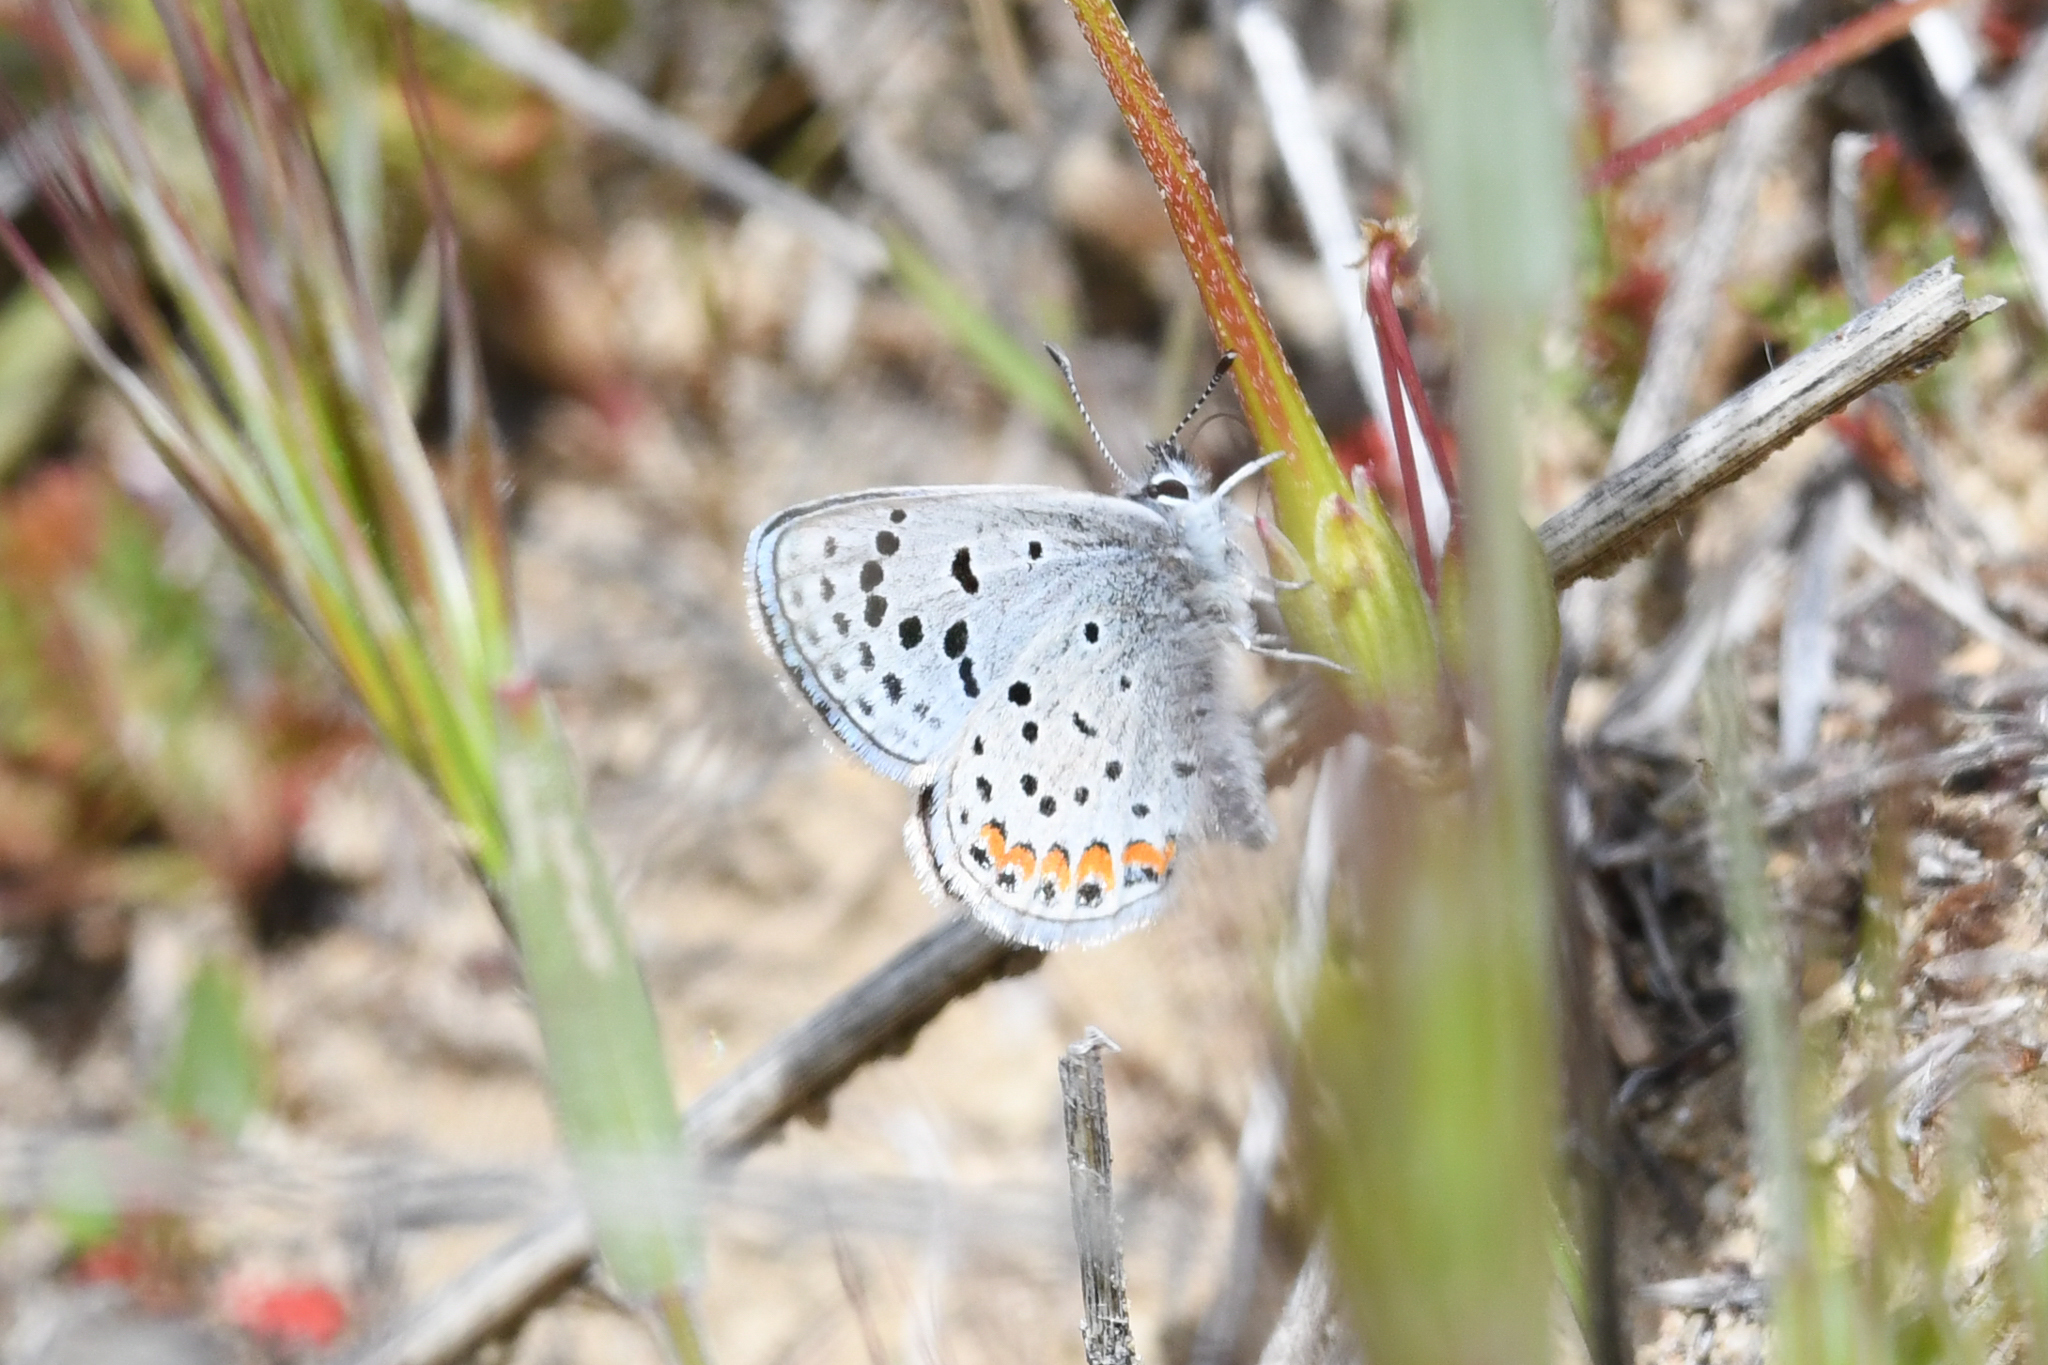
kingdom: Animalia
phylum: Arthropoda
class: Insecta
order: Lepidoptera
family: Lycaenidae
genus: Icaricia
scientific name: Icaricia acmon
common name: Acmon blue
